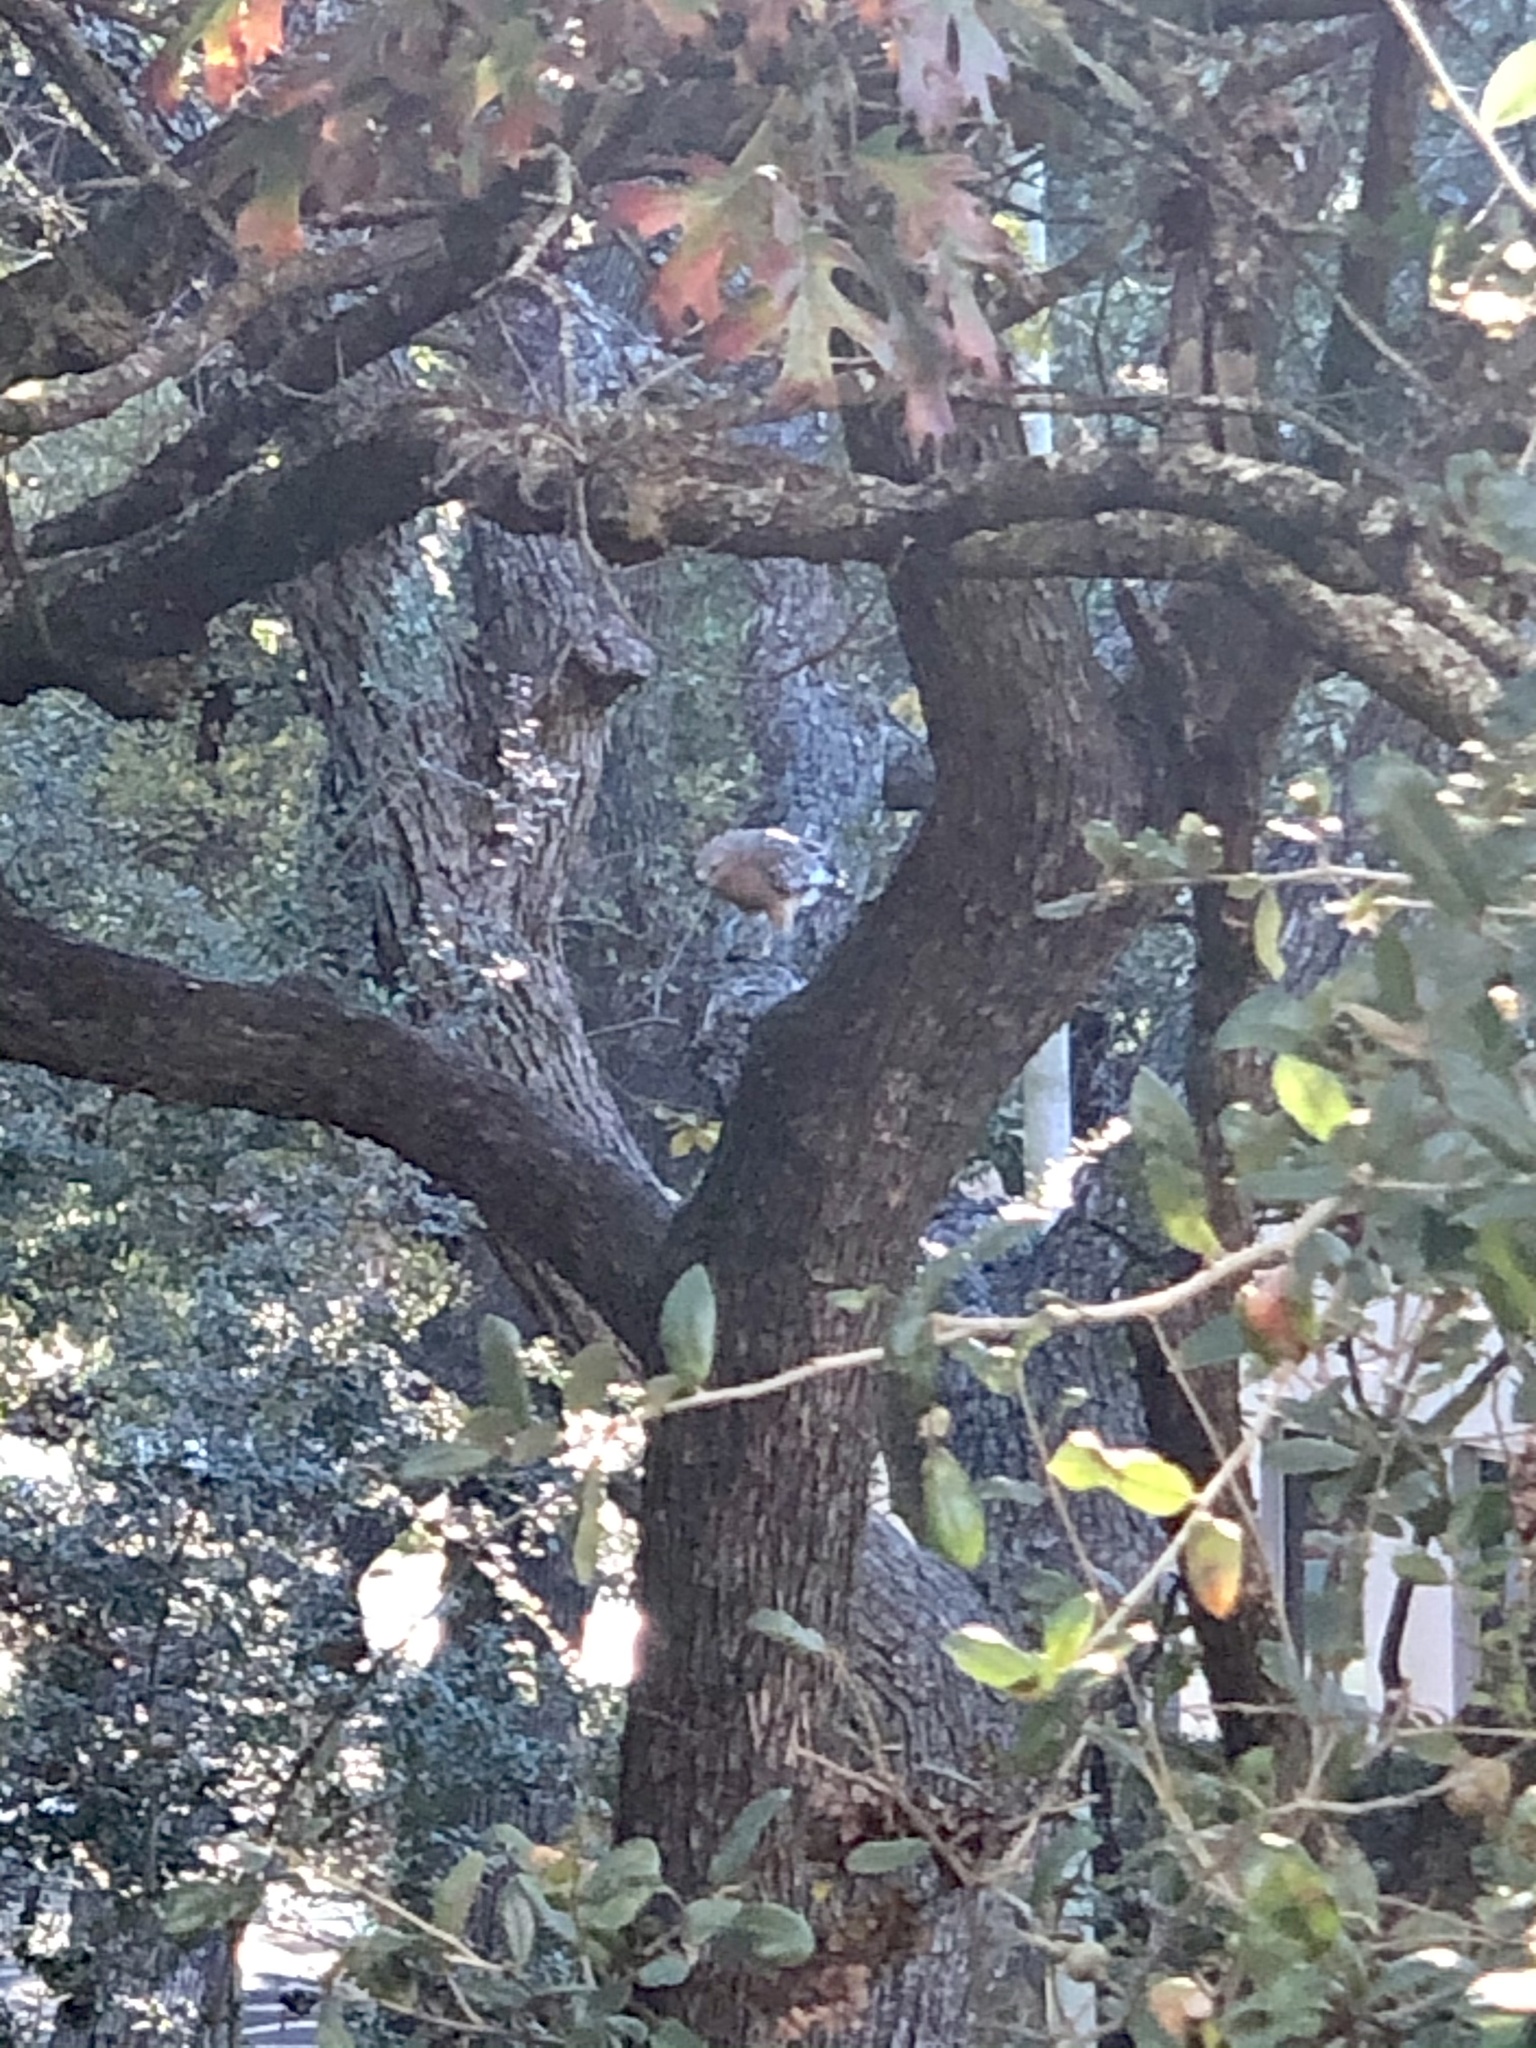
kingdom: Animalia
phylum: Chordata
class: Aves
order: Accipitriformes
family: Accipitridae
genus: Buteo
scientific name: Buteo lineatus
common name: Red-shouldered hawk
